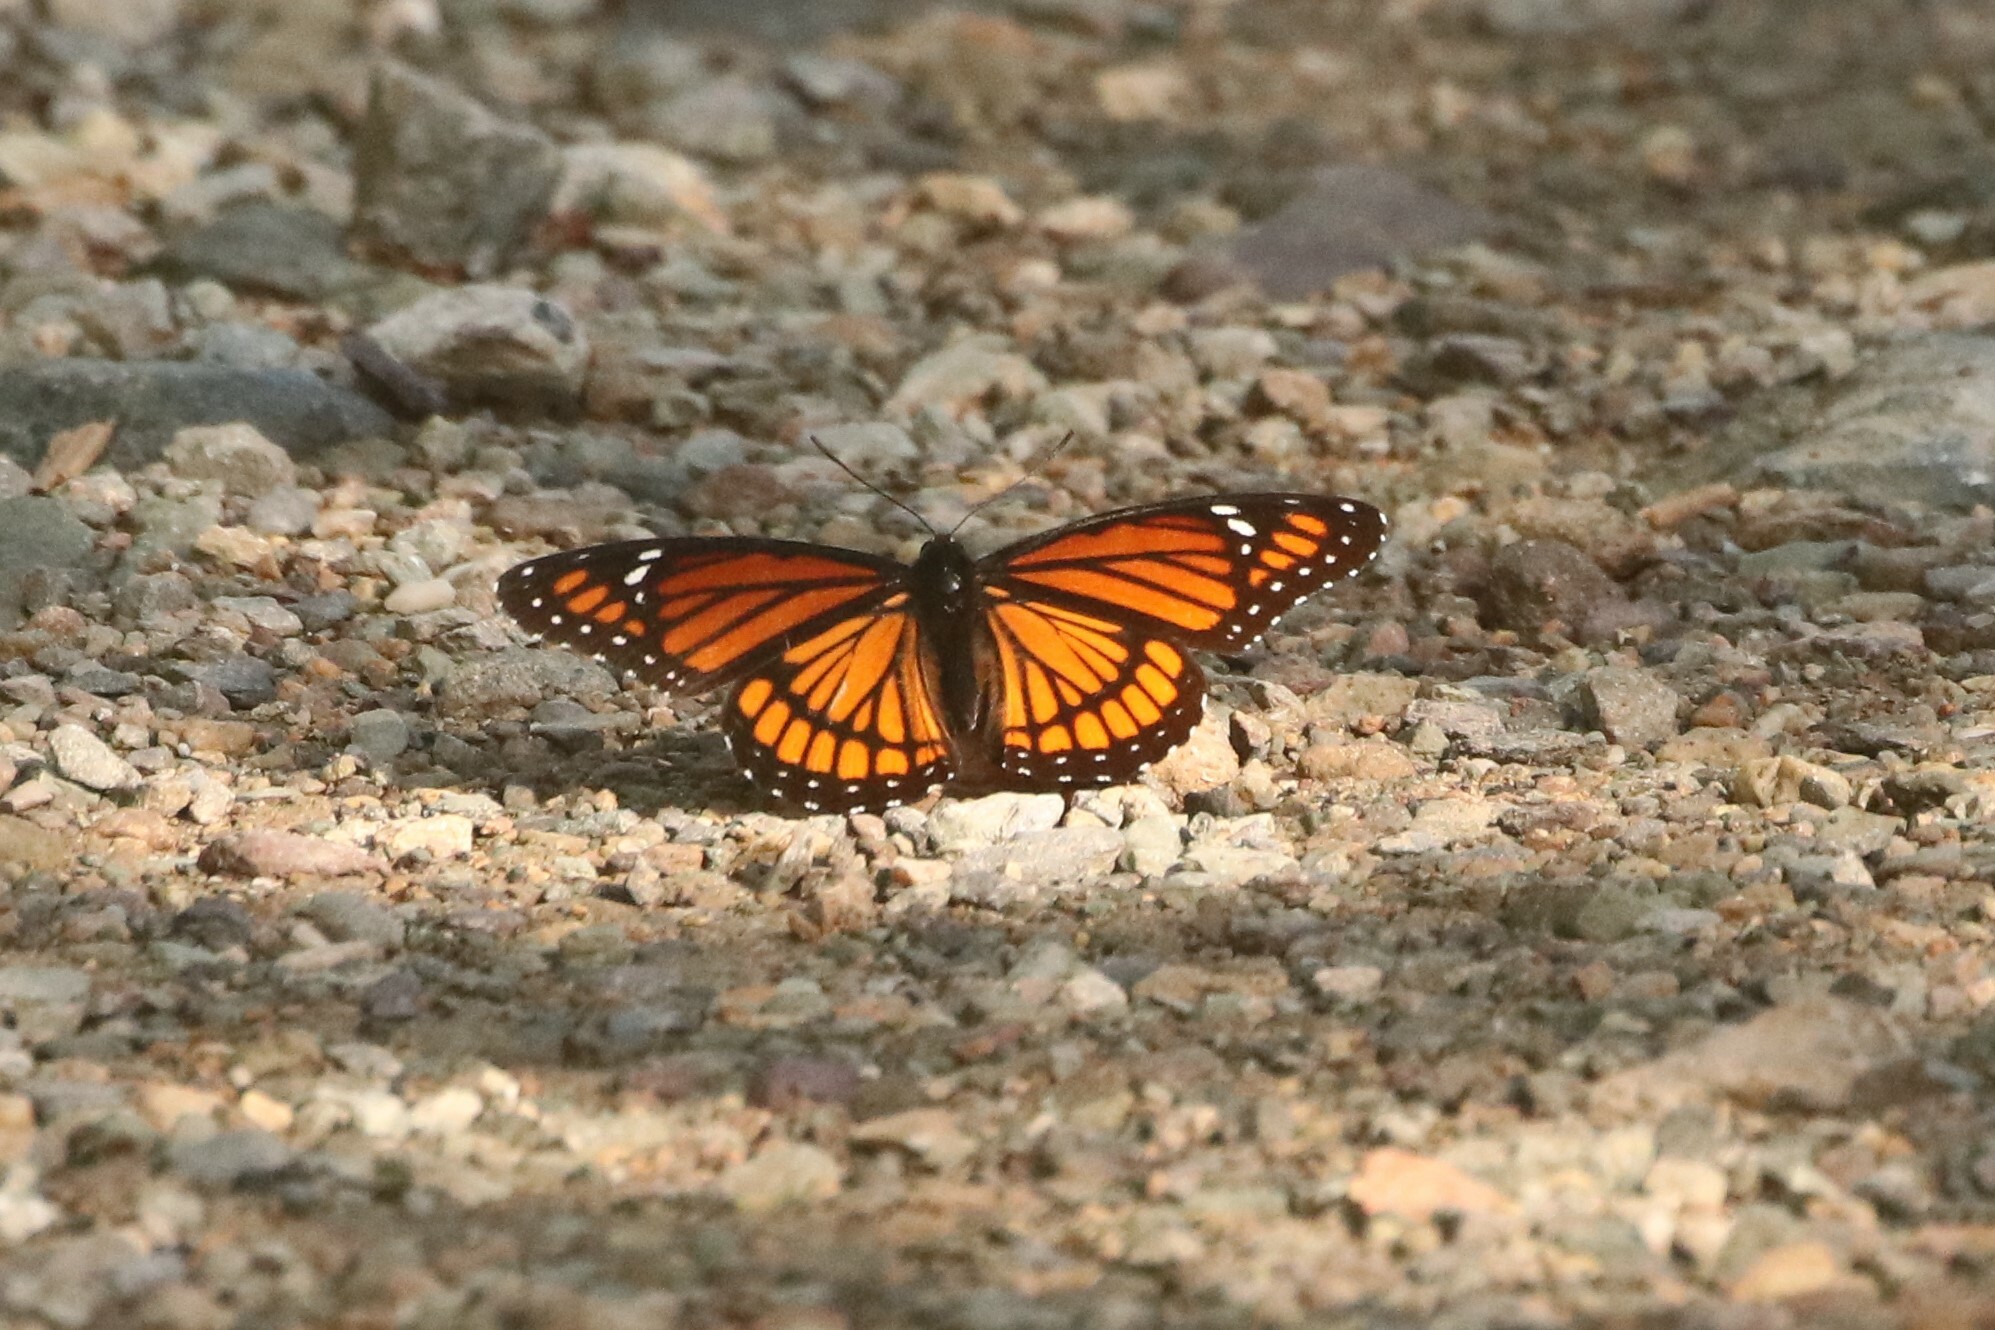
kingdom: Animalia
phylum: Arthropoda
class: Insecta
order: Lepidoptera
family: Nymphalidae
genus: Limenitis
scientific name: Limenitis archippus
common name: Viceroy
